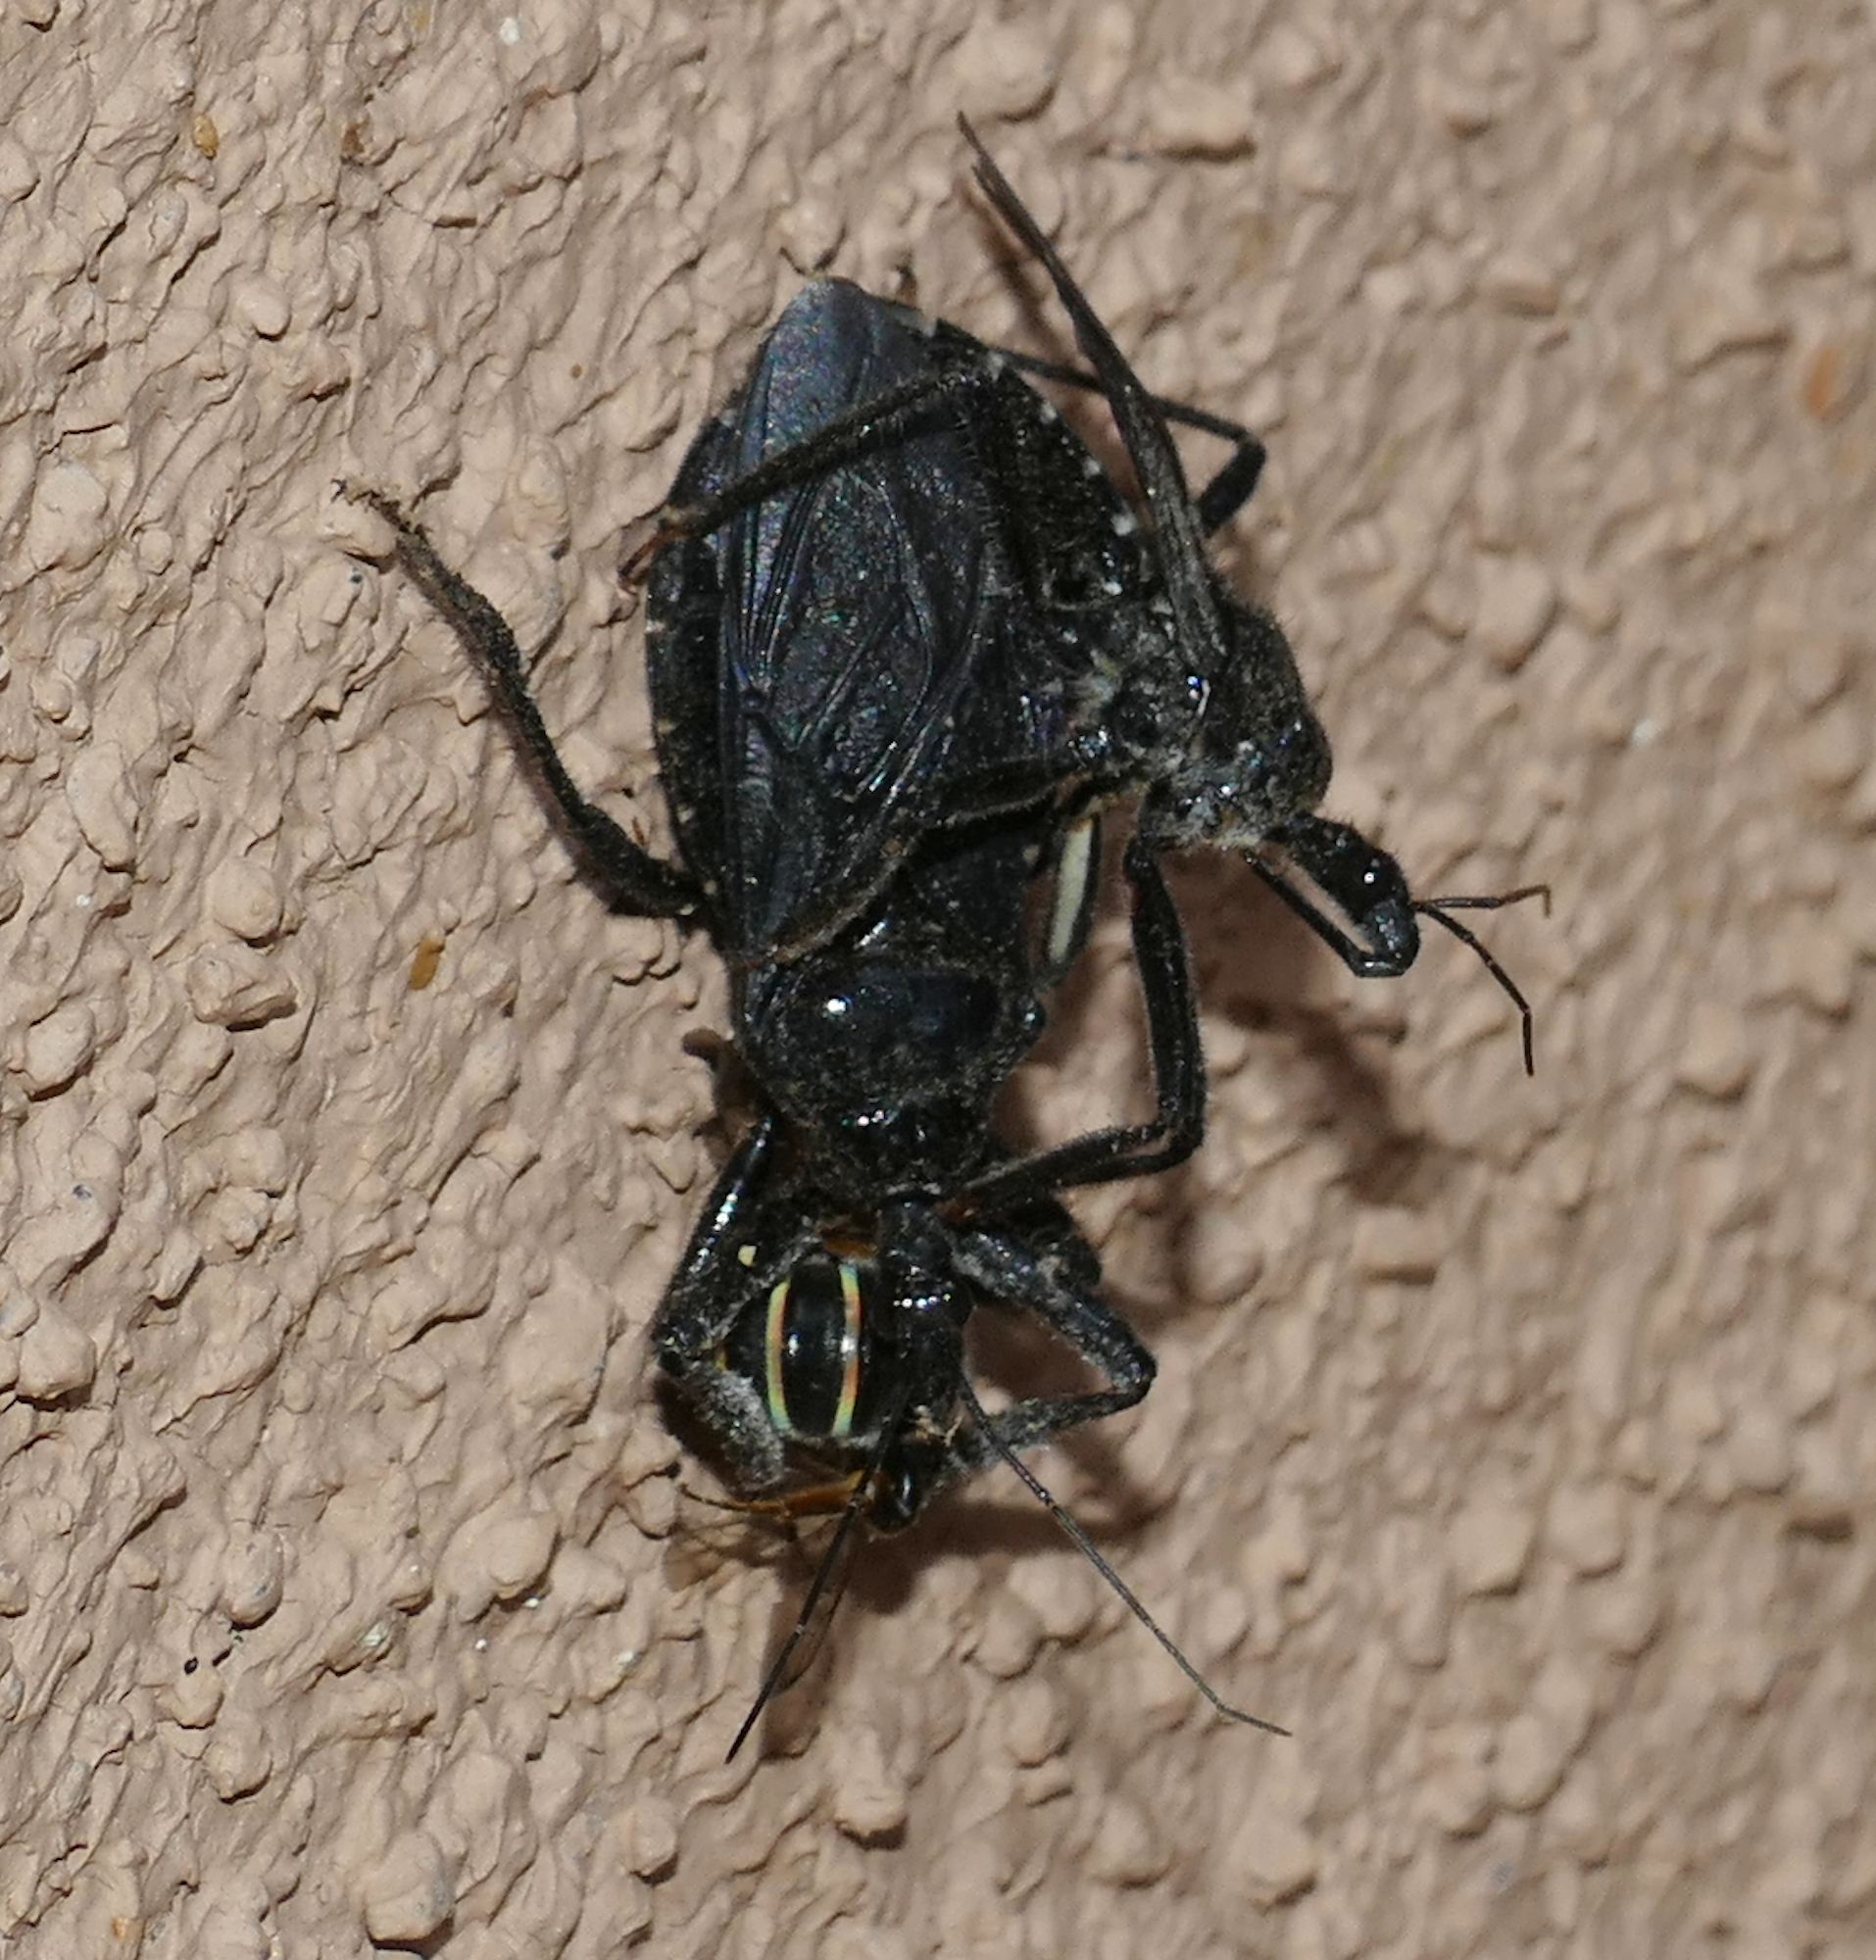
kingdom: Animalia
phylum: Arthropoda
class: Insecta
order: Hemiptera
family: Reduviidae
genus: Apiomerus
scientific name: Apiomerus longispinis
